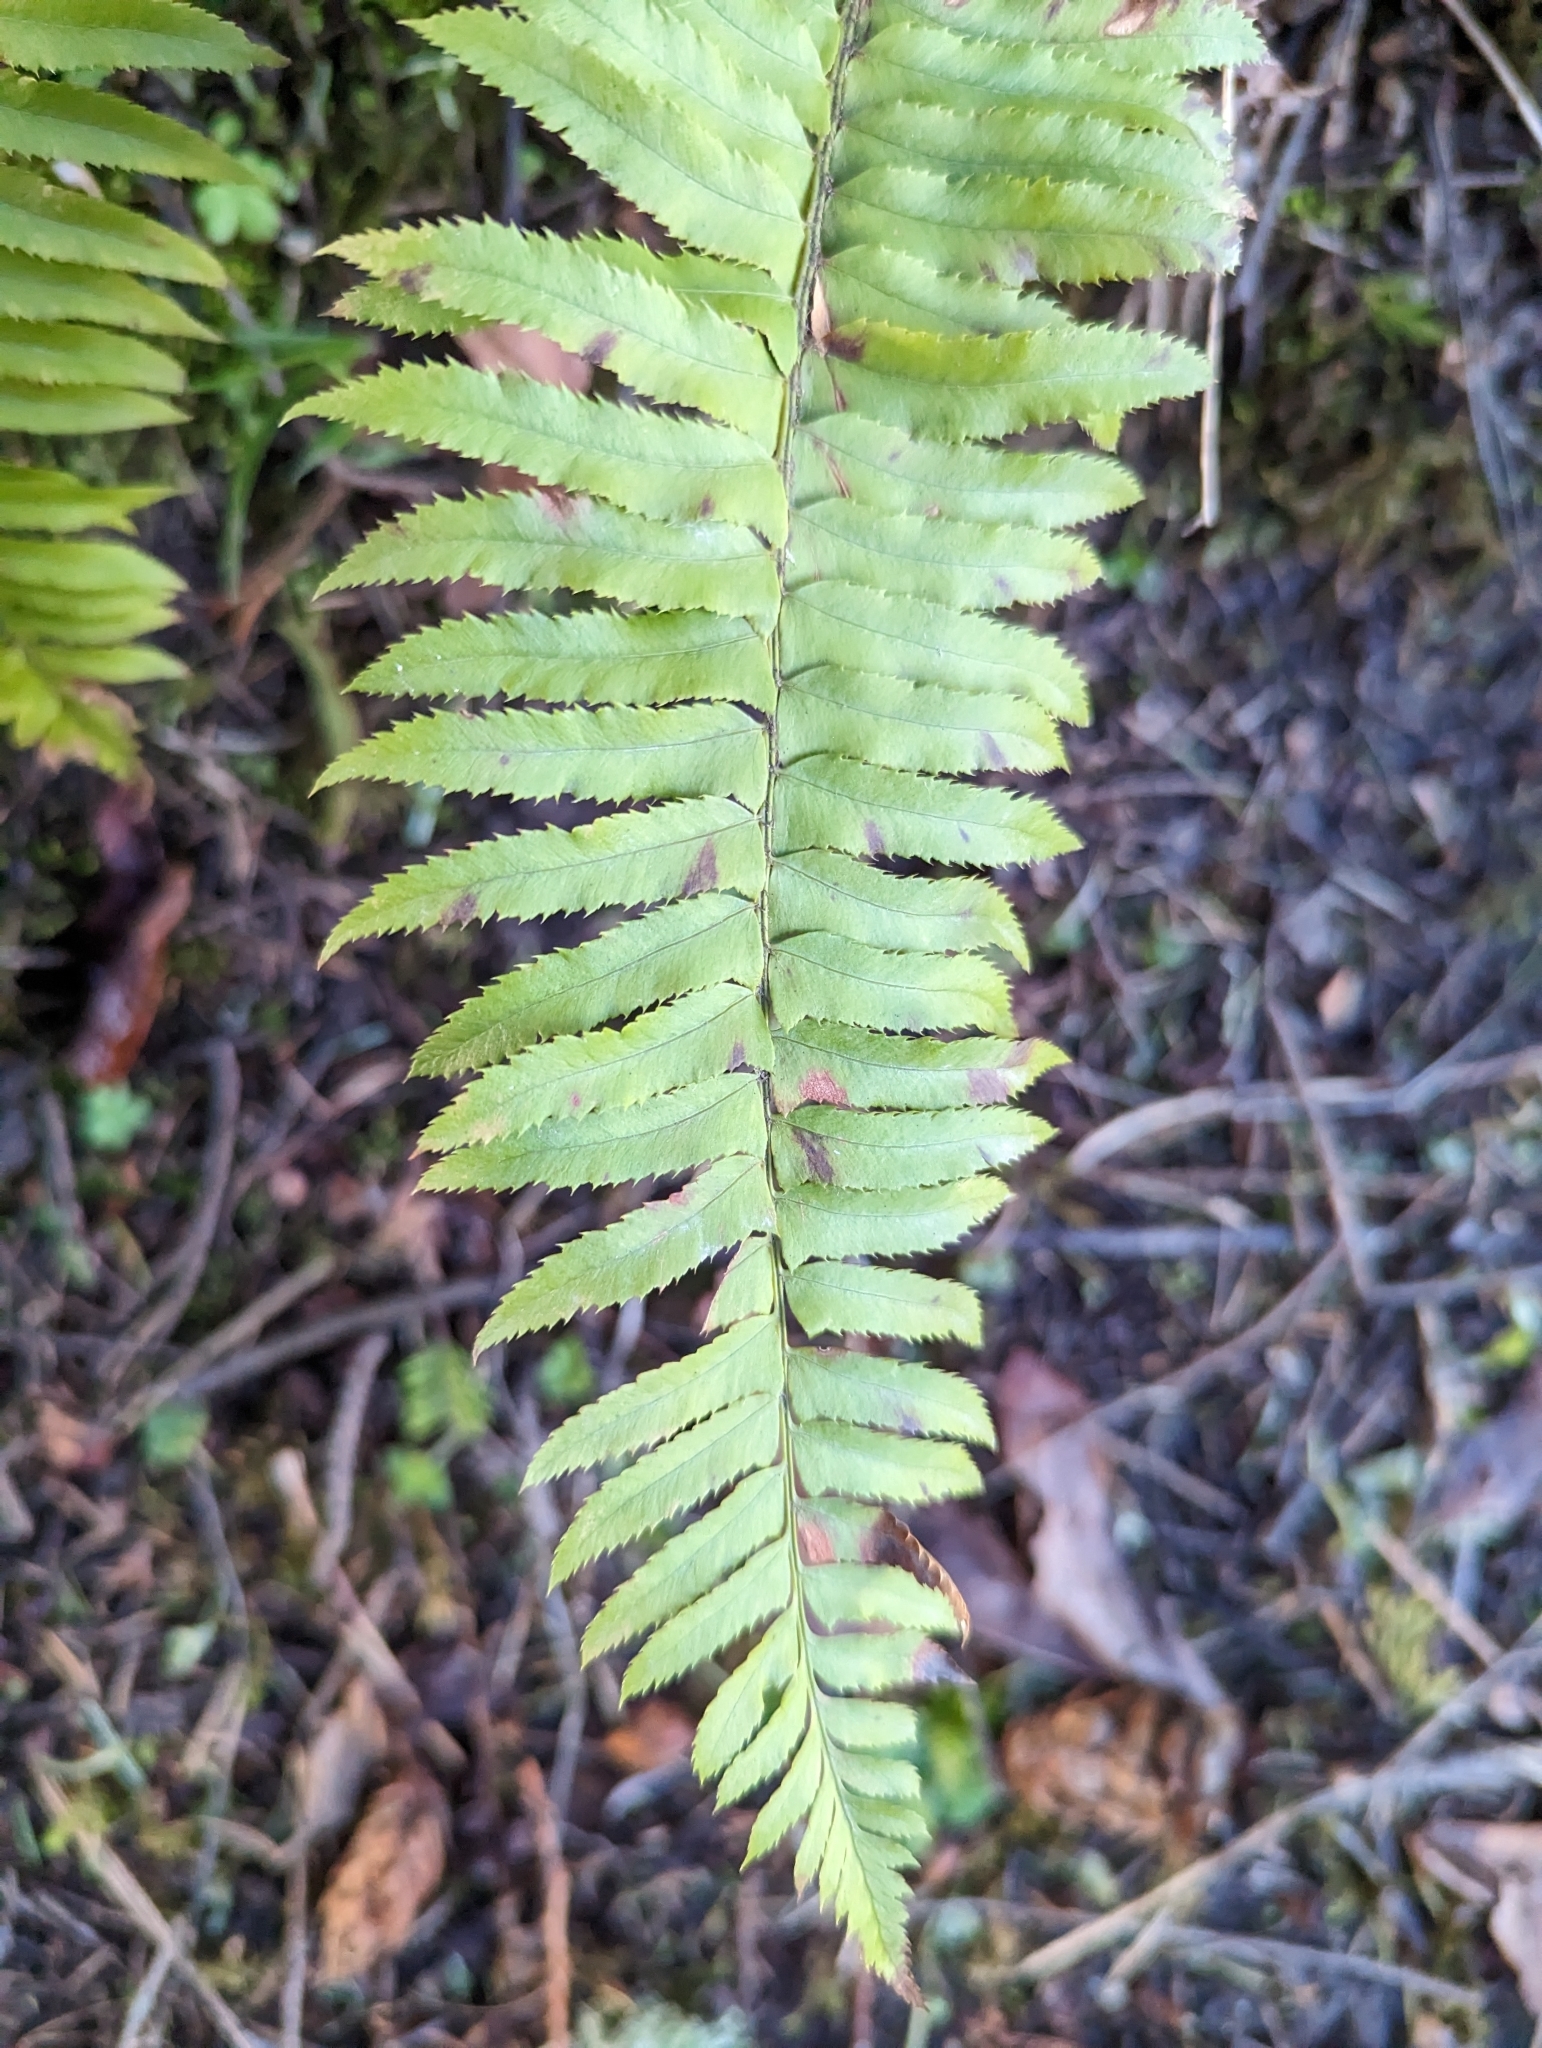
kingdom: Plantae
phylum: Tracheophyta
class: Polypodiopsida
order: Polypodiales
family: Dryopteridaceae
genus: Polystichum
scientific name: Polystichum munitum
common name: Western sword-fern
